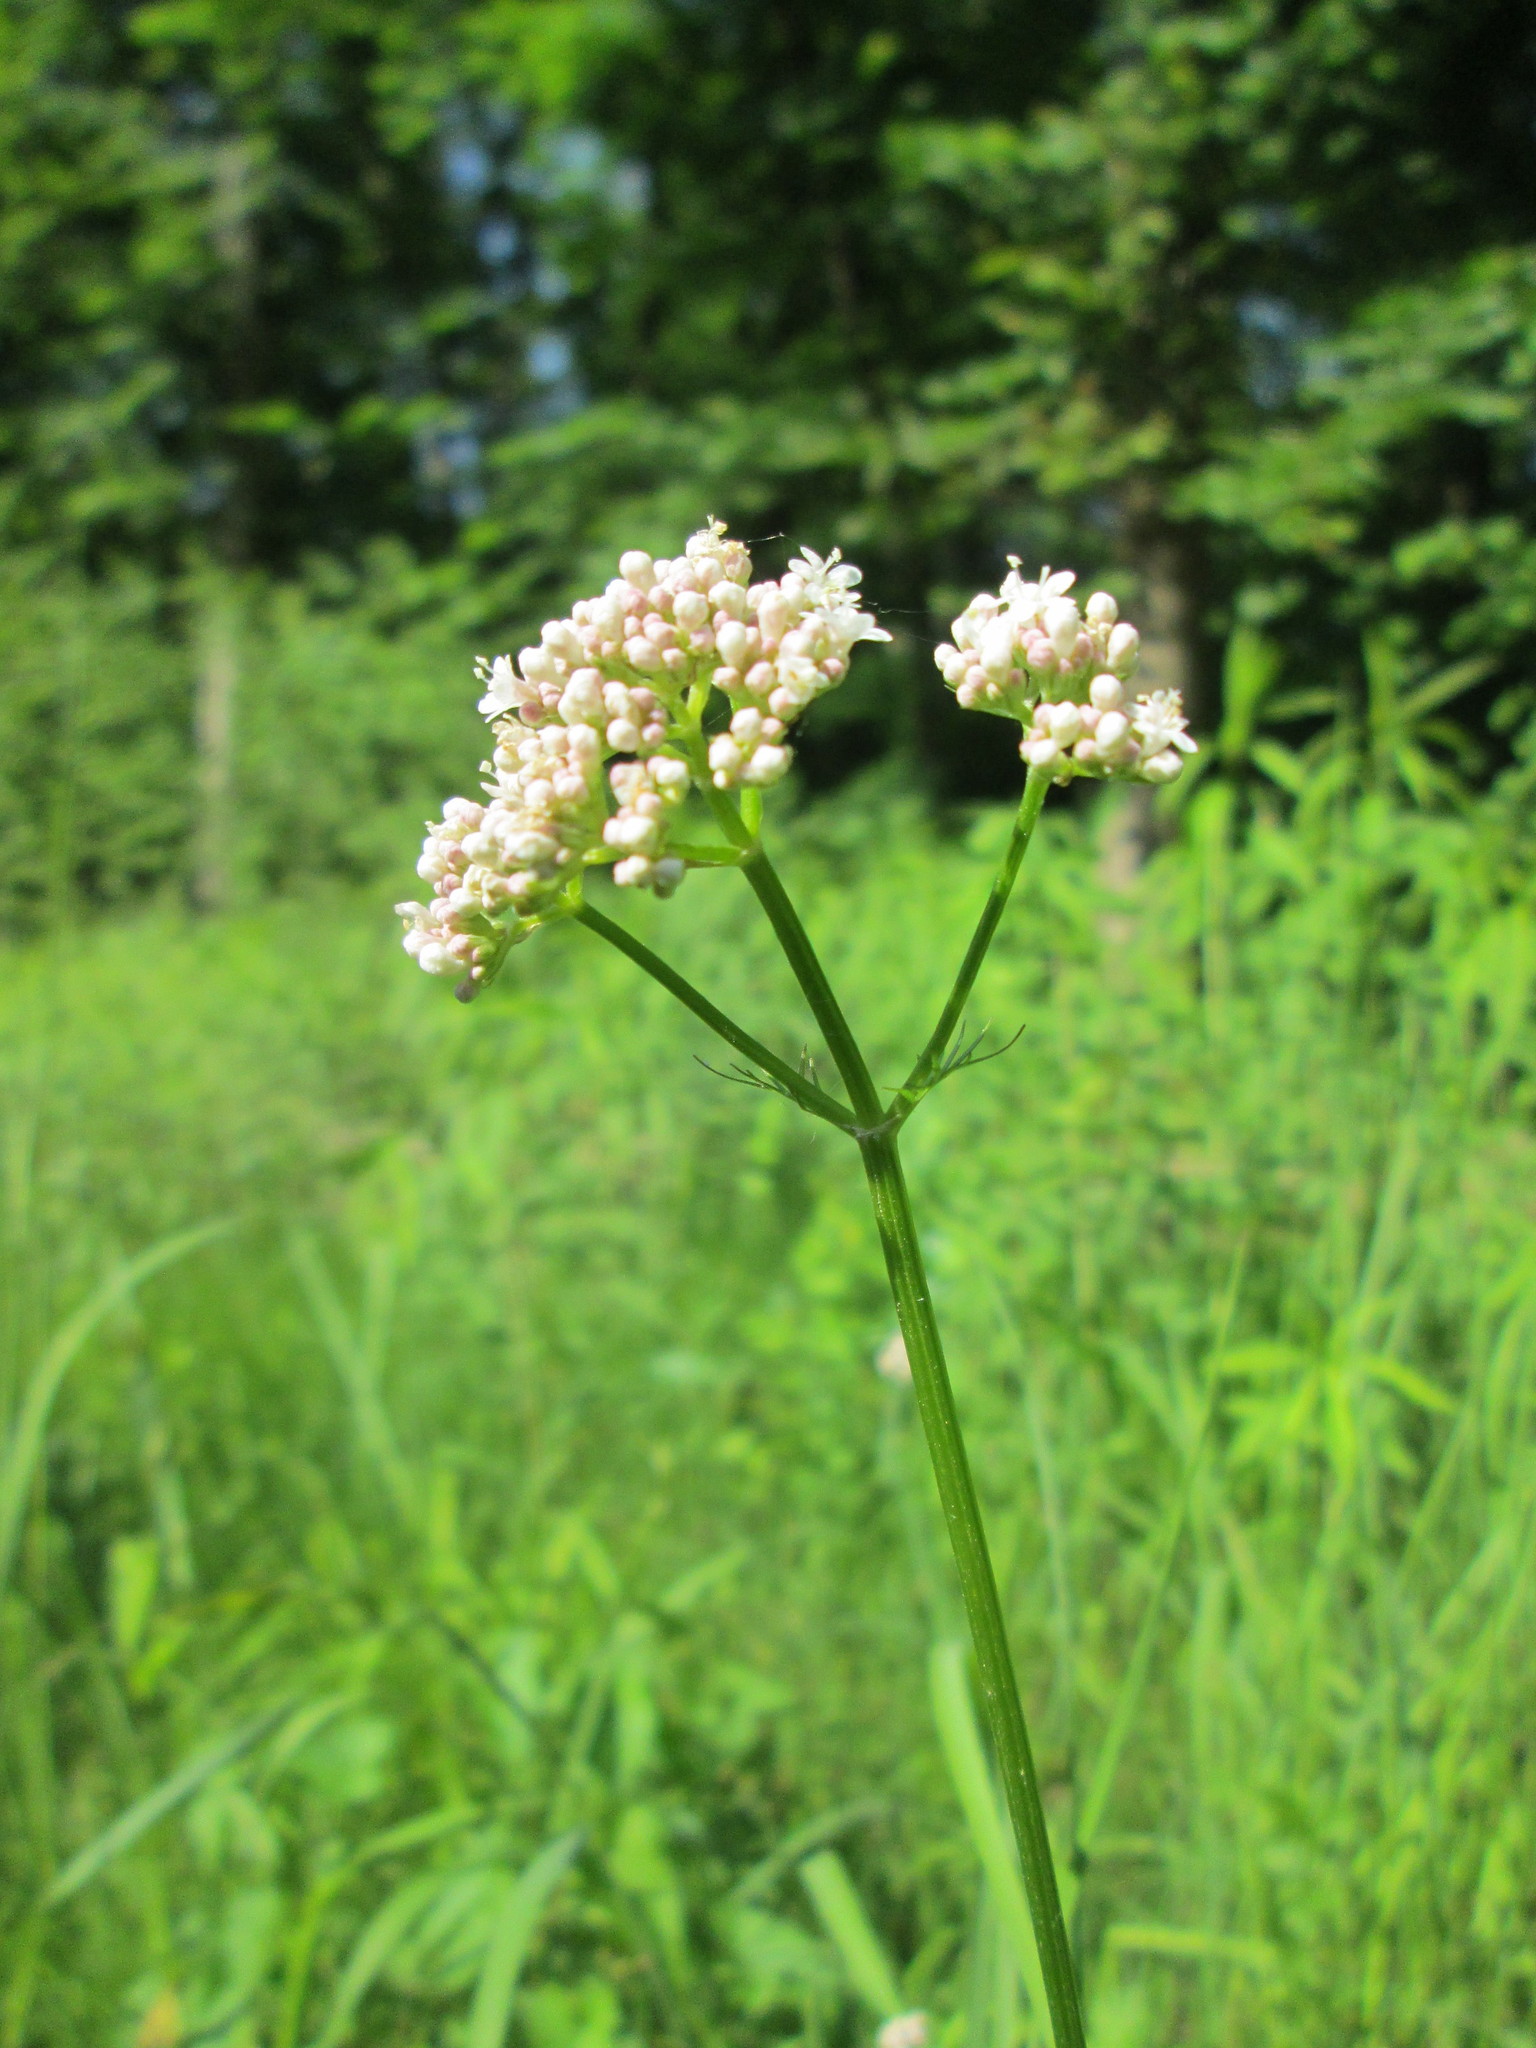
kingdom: Plantae
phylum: Tracheophyta
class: Magnoliopsida
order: Dipsacales
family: Caprifoliaceae
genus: Valeriana
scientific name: Valeriana officinalis
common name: Common valerian
